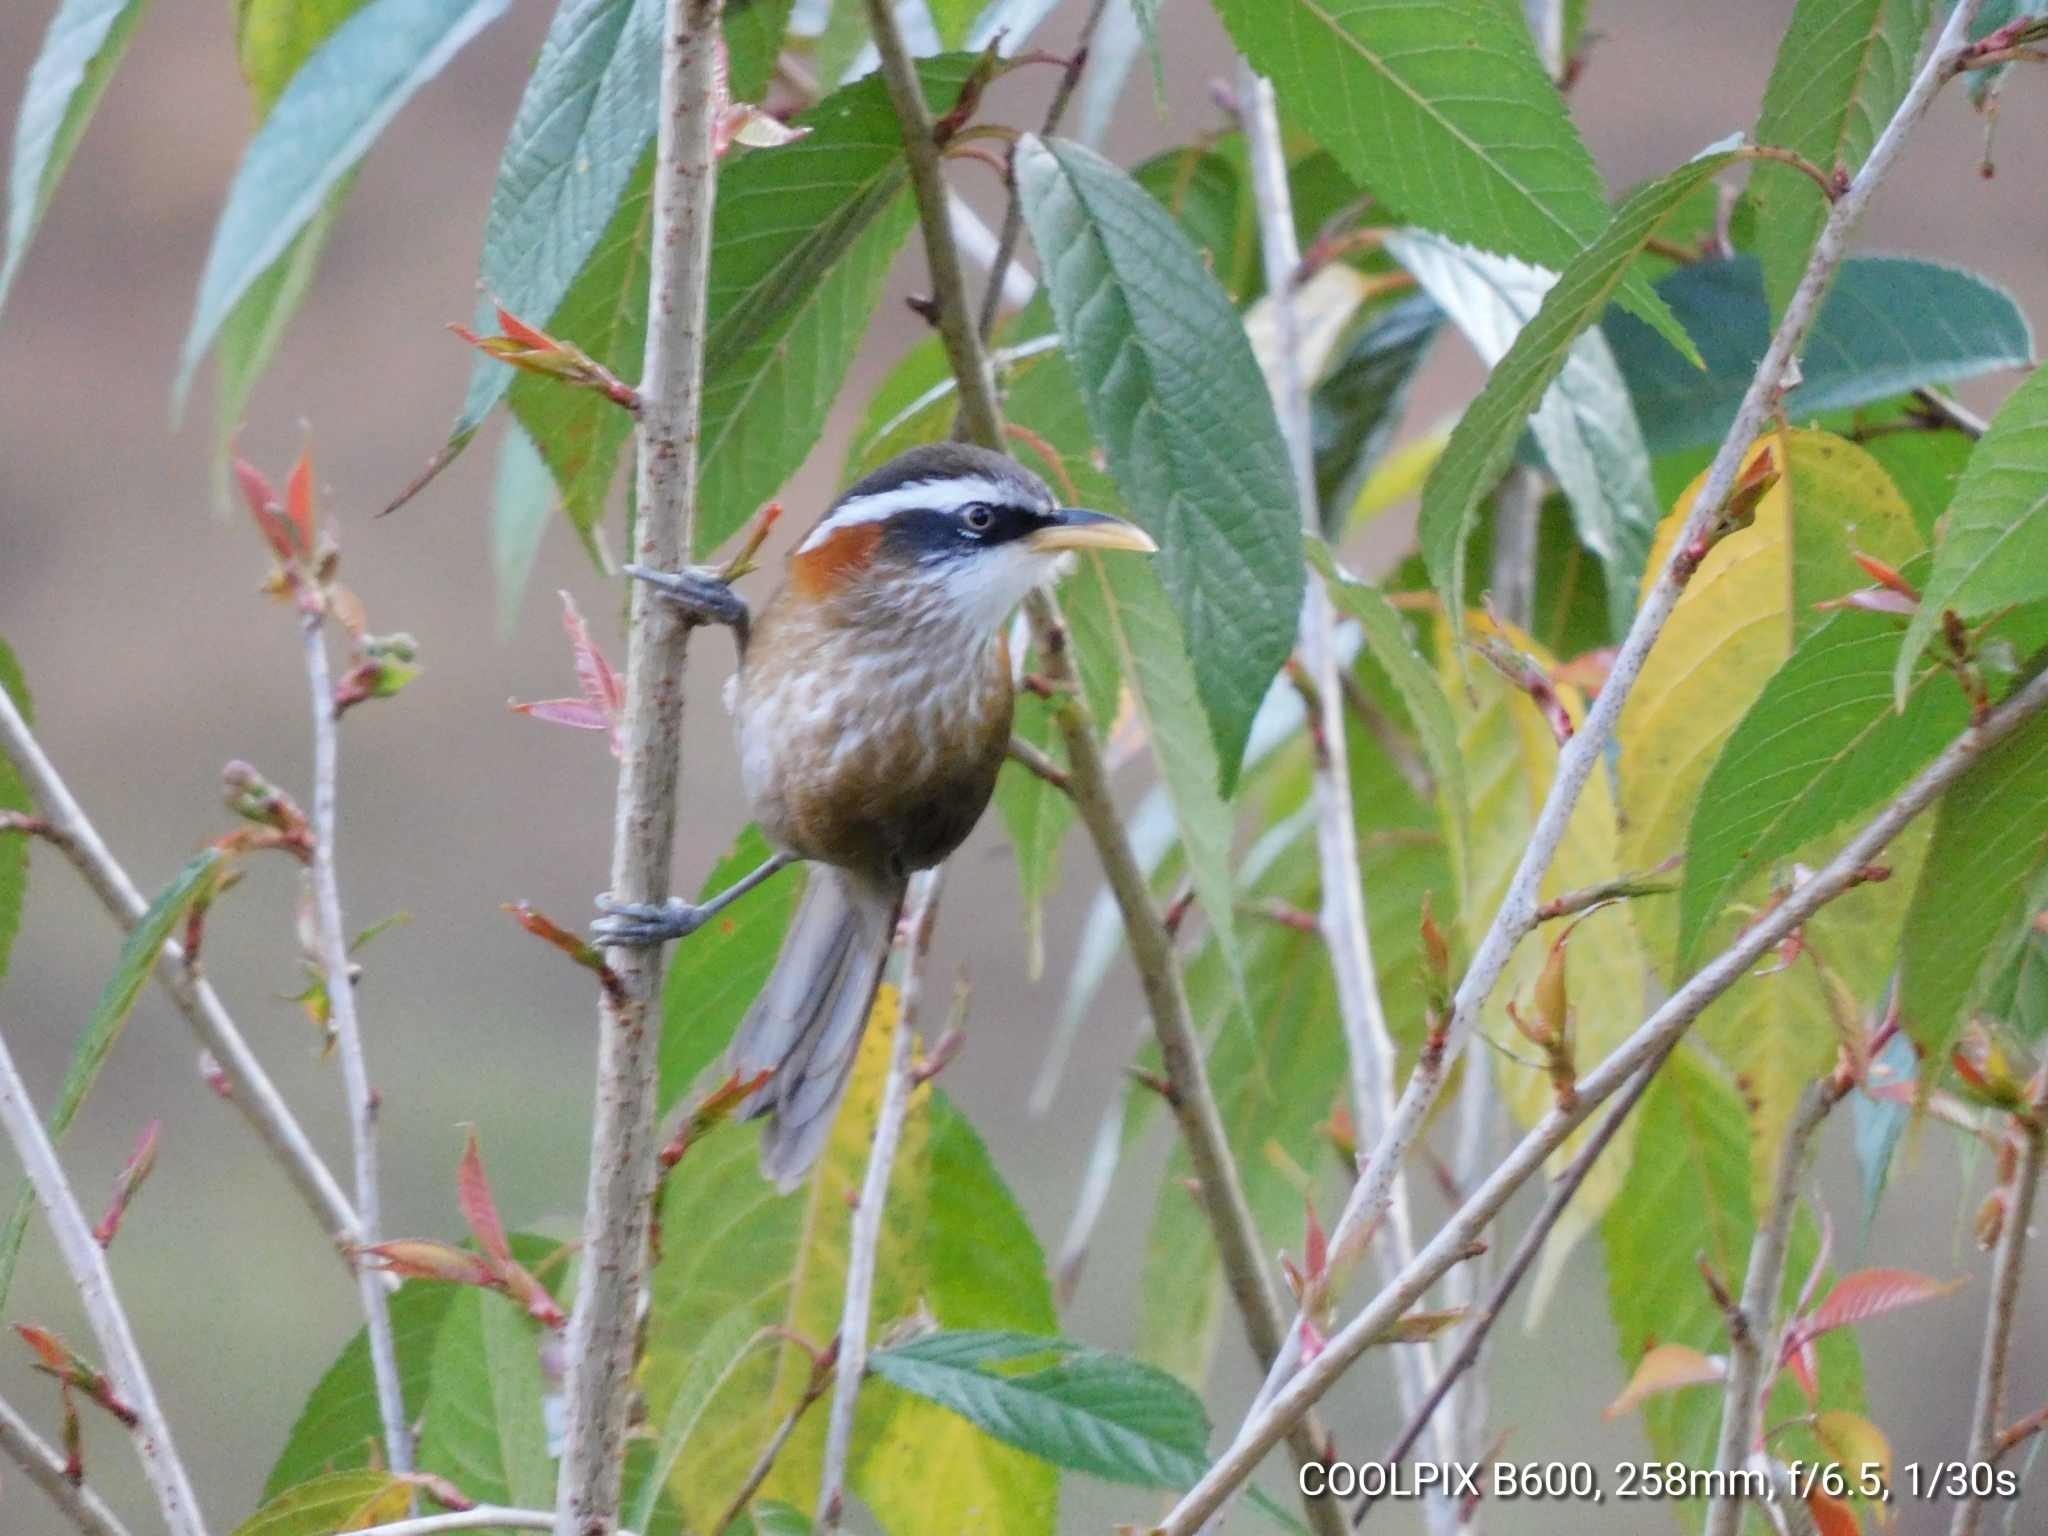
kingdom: Animalia
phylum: Chordata
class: Aves
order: Passeriformes
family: Timaliidae
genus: Pomatorhinus
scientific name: Pomatorhinus ruficollis
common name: Streak-breasted scimitar babbler
